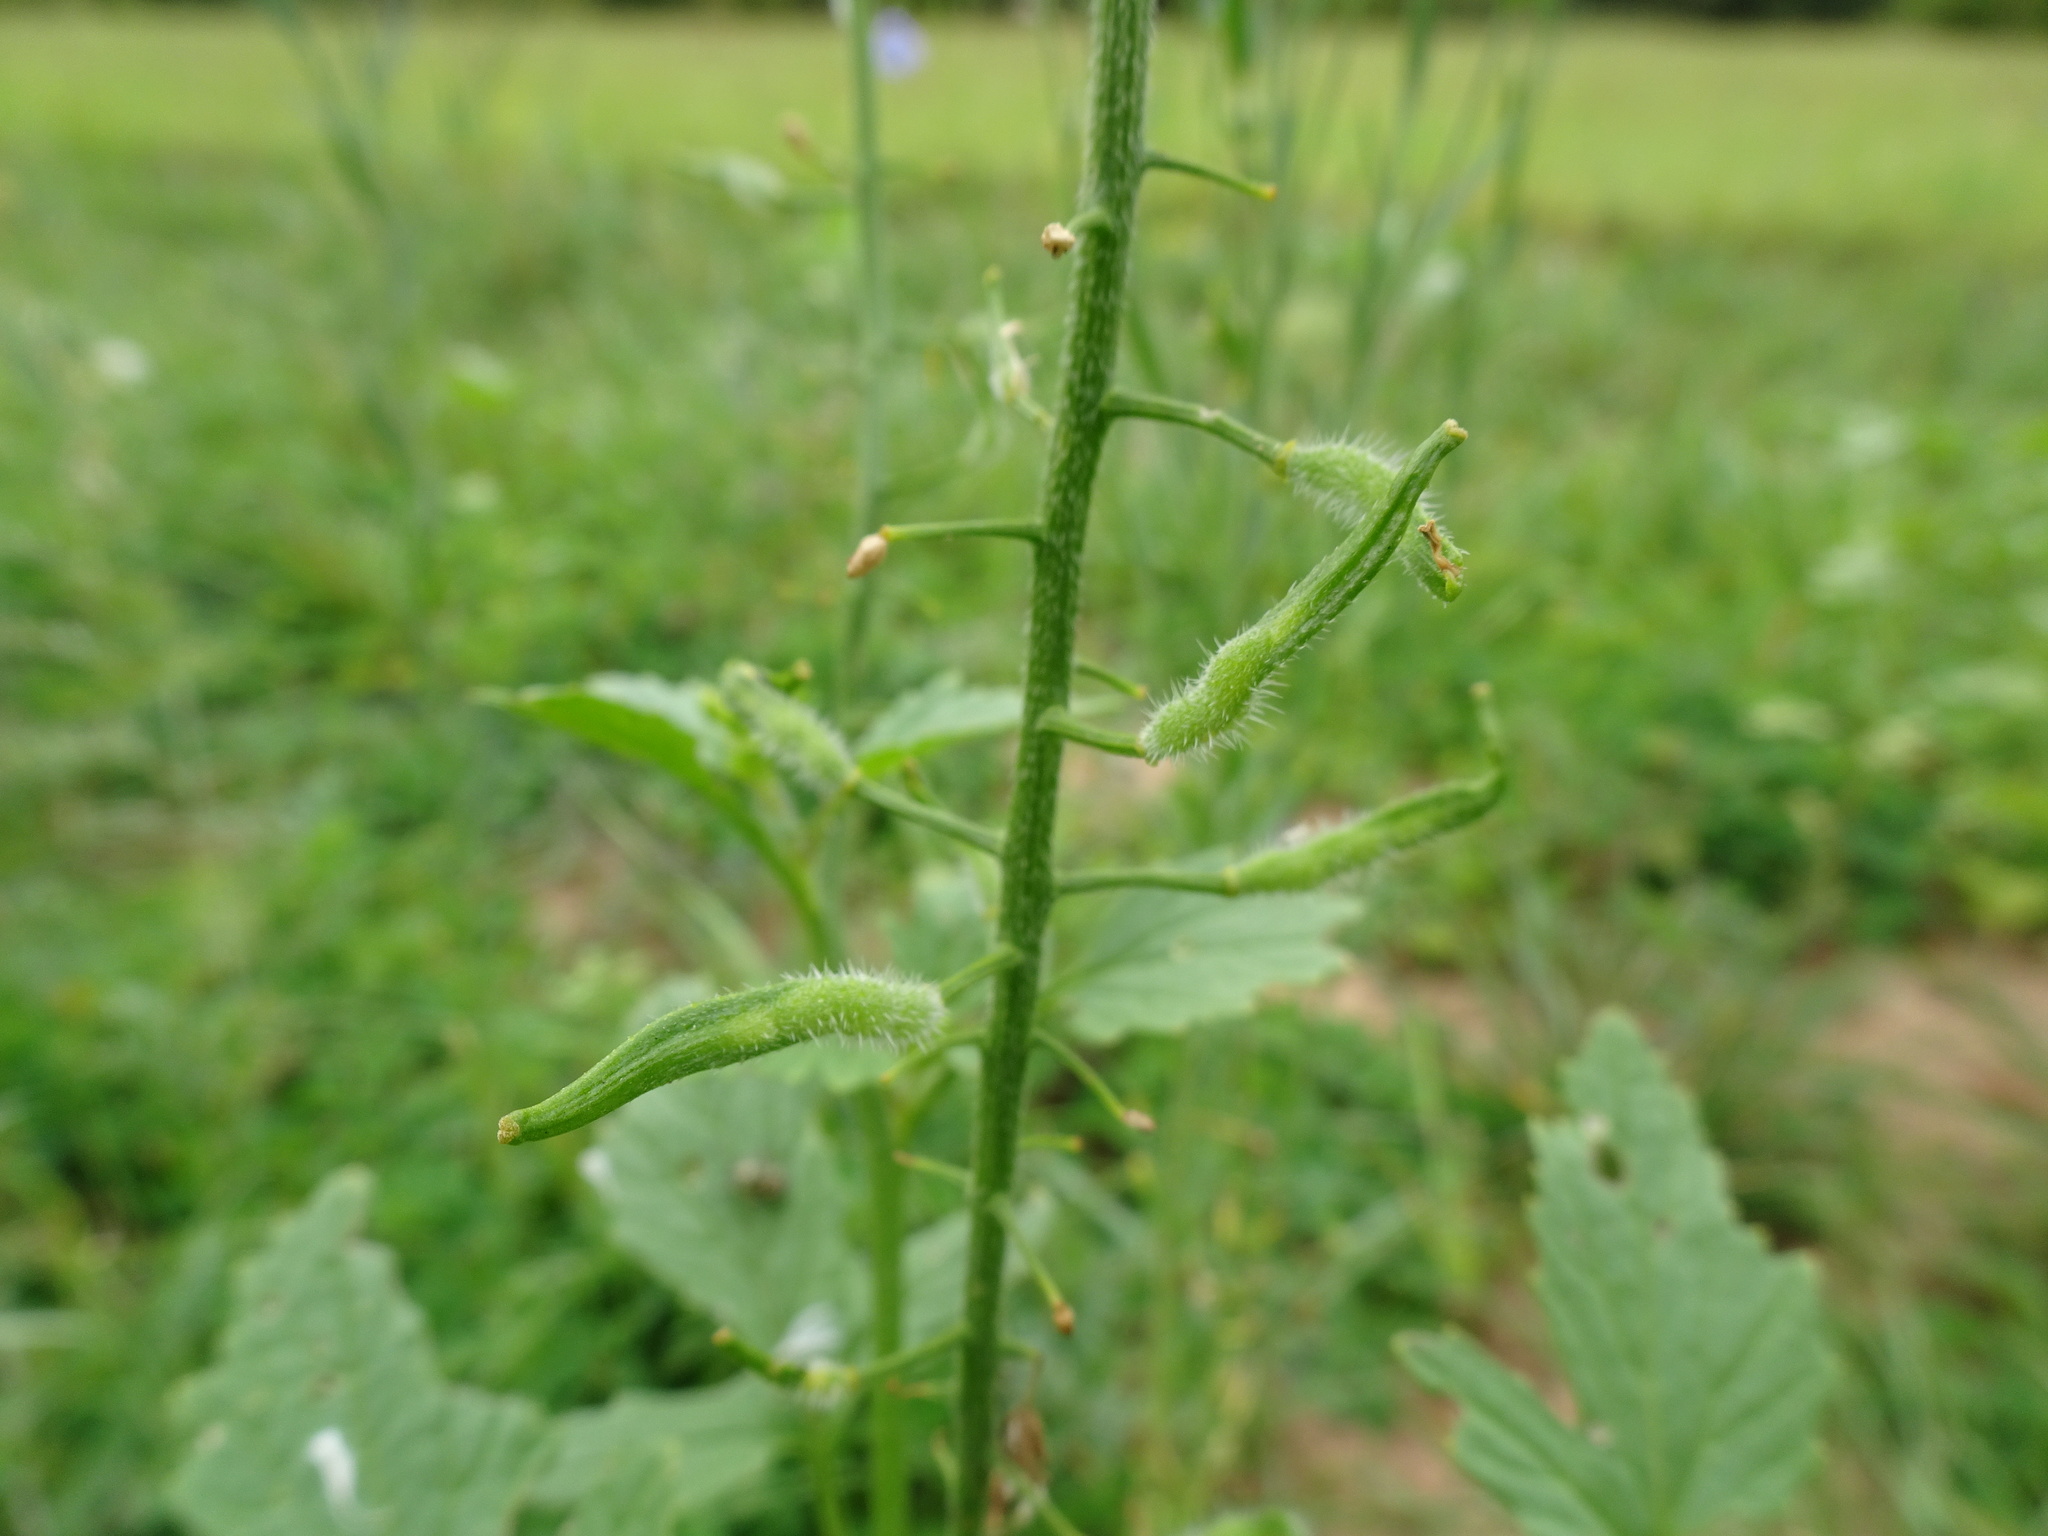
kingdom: Plantae
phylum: Tracheophyta
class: Magnoliopsida
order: Brassicales
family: Brassicaceae
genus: Sinapis
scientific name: Sinapis alba
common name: White mustard
